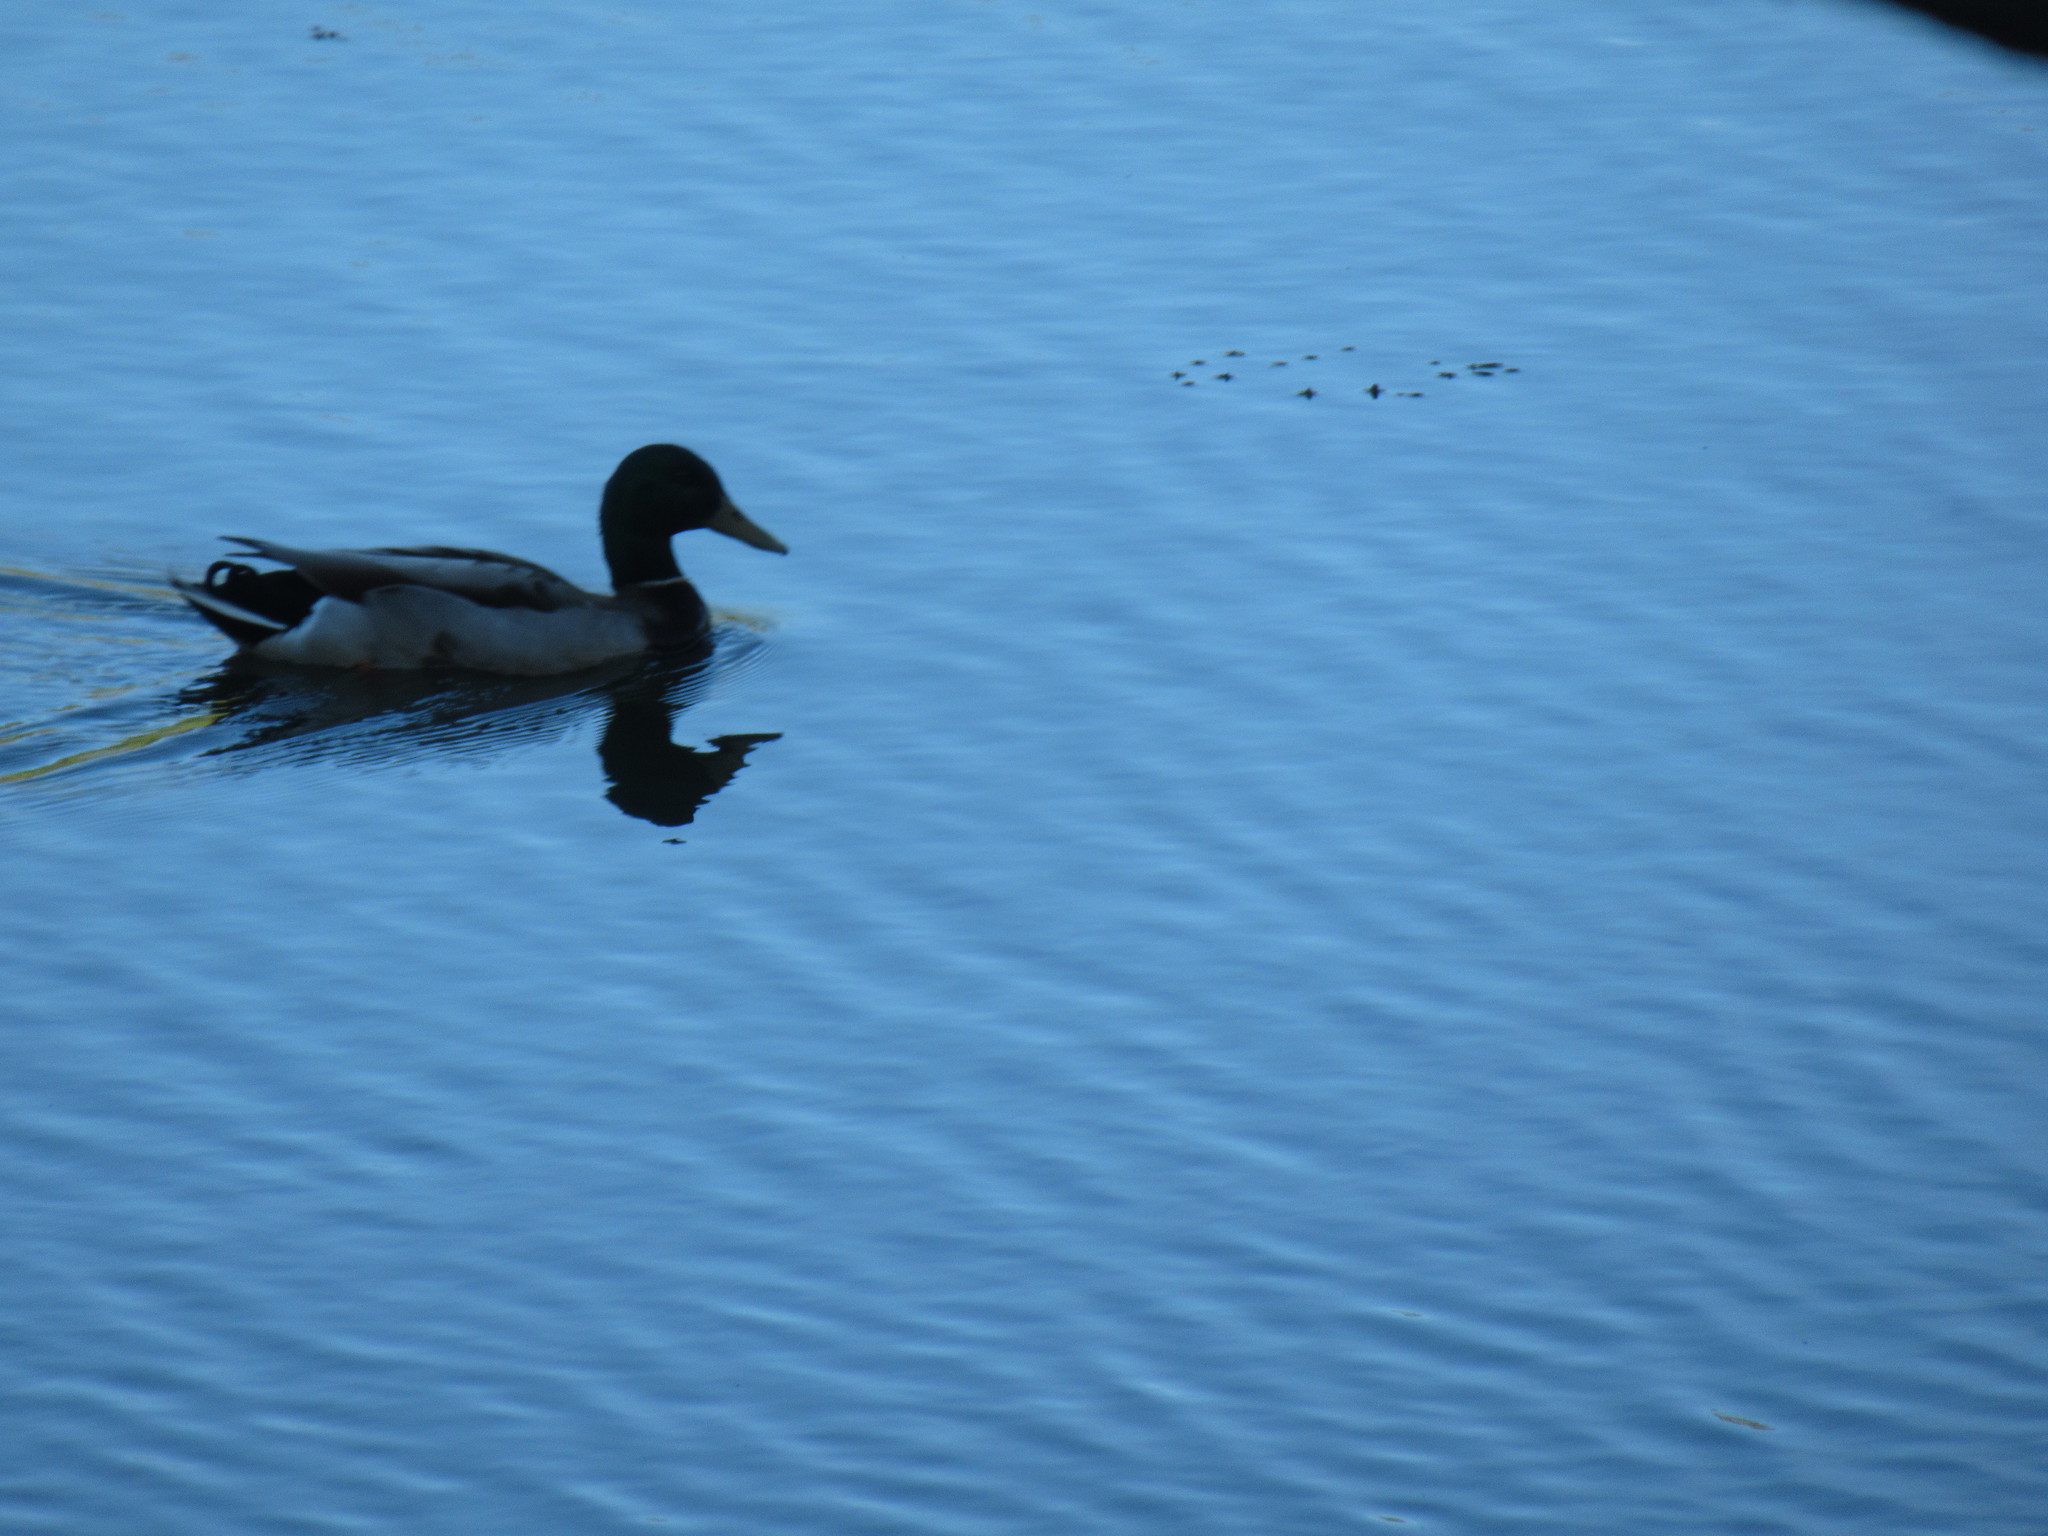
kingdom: Animalia
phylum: Chordata
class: Aves
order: Anseriformes
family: Anatidae
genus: Anas
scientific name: Anas platyrhynchos
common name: Mallard
